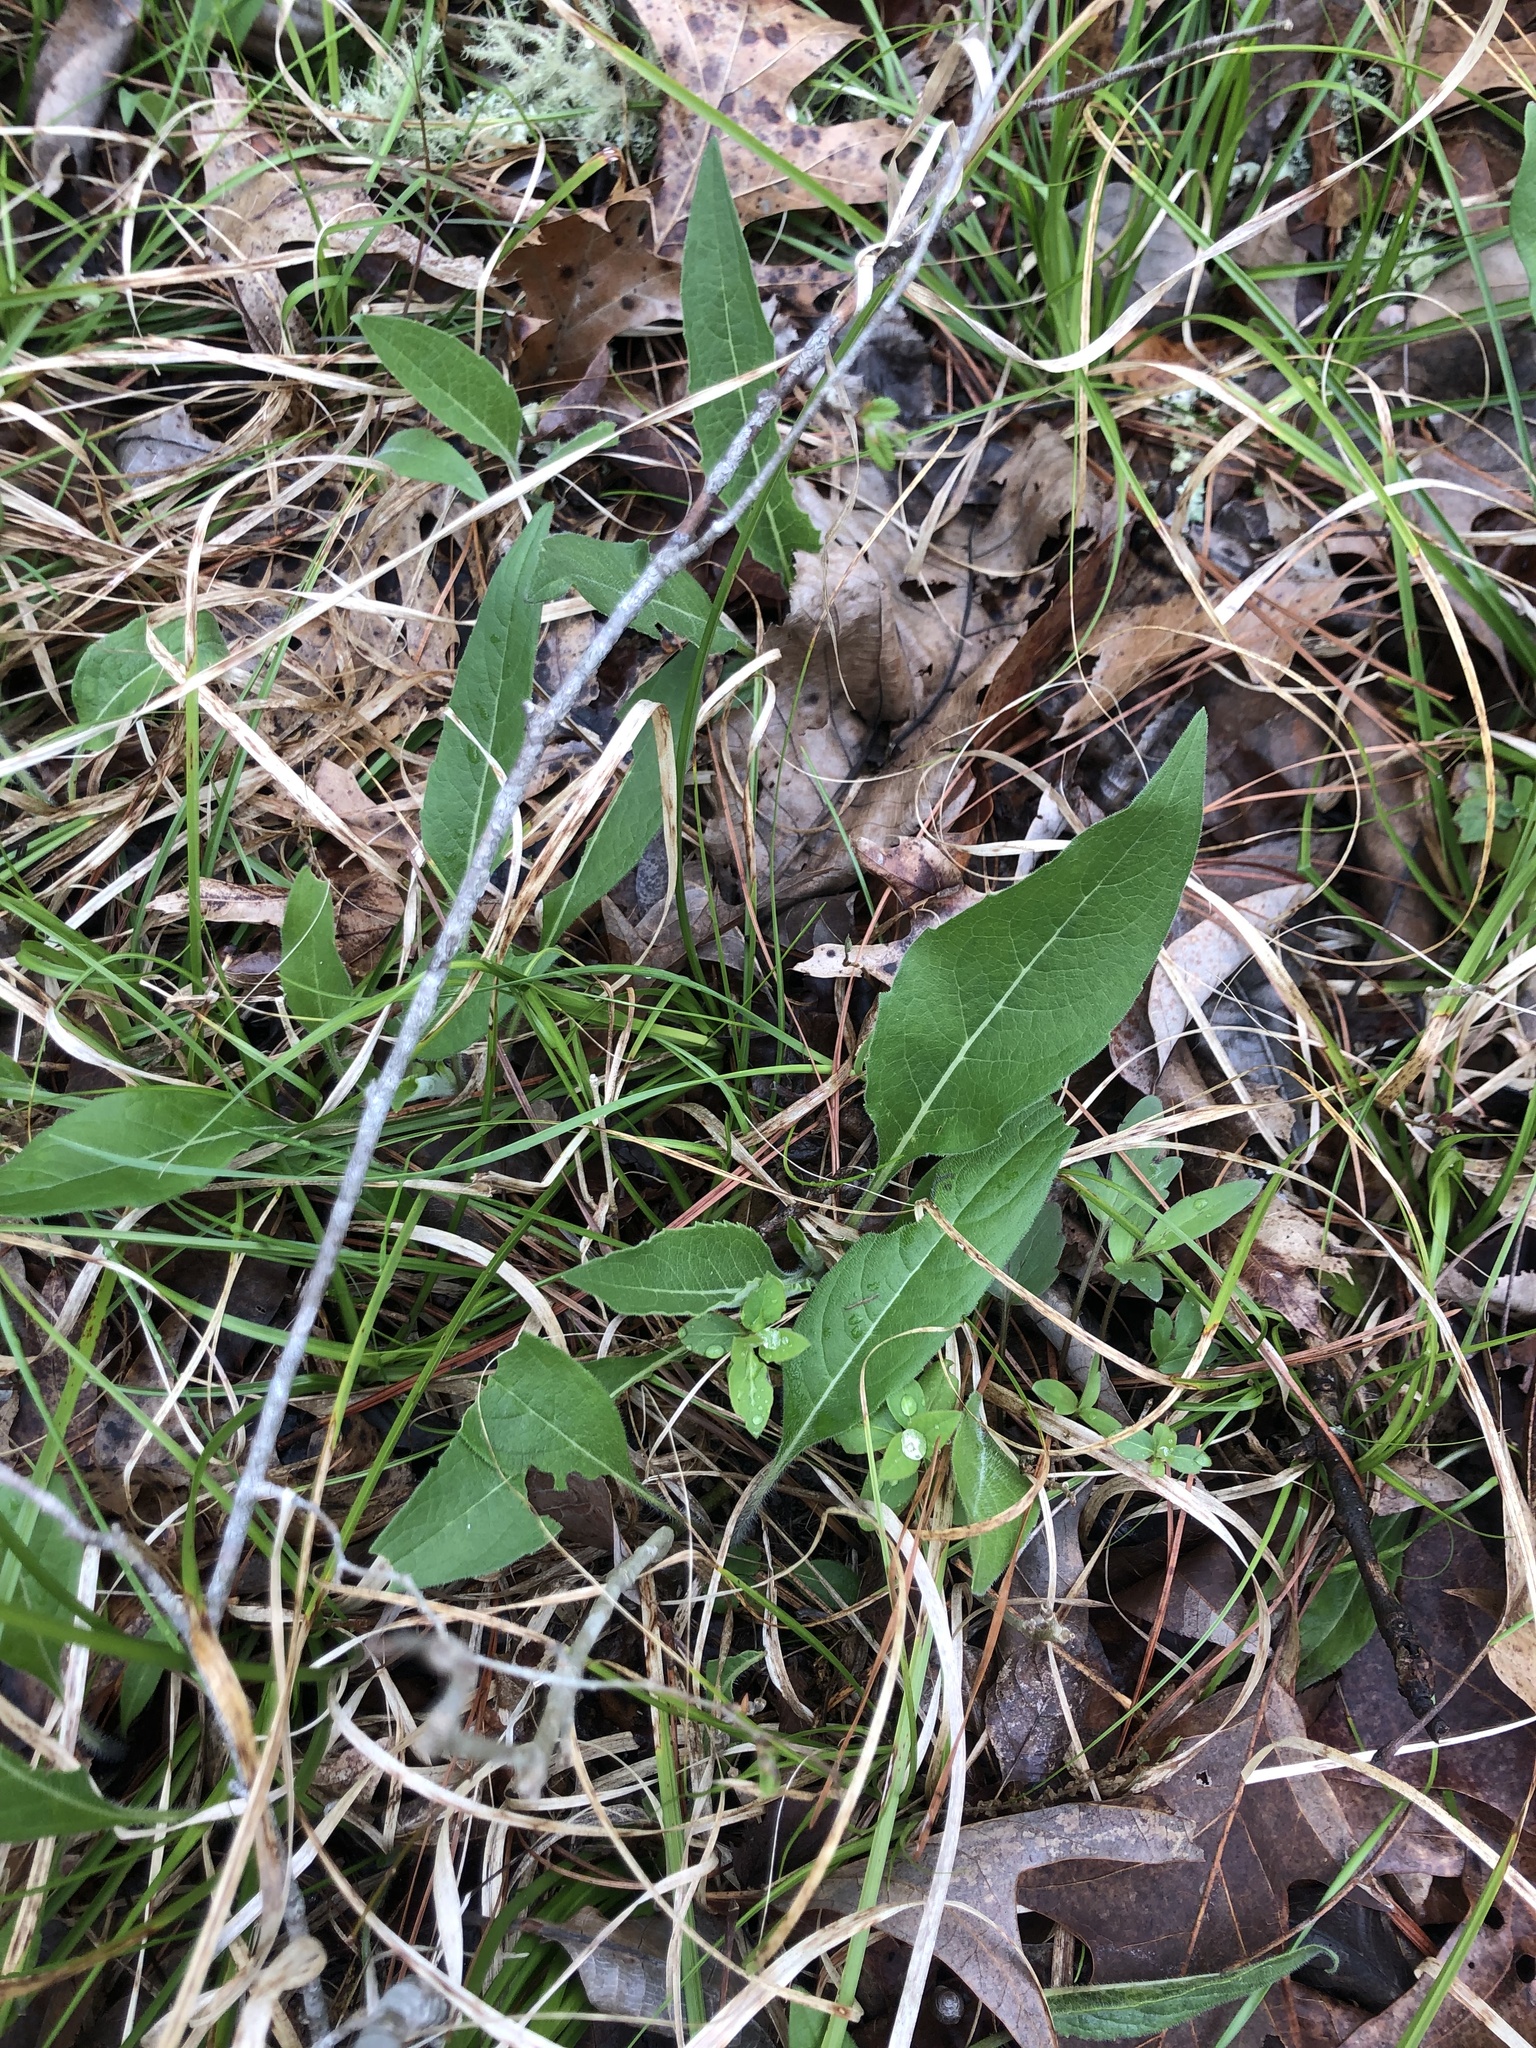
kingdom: Plantae
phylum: Tracheophyta
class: Magnoliopsida
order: Asterales
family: Asteraceae
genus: Silphium
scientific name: Silphium integrifolium
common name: Whole-leaf rosinweed
